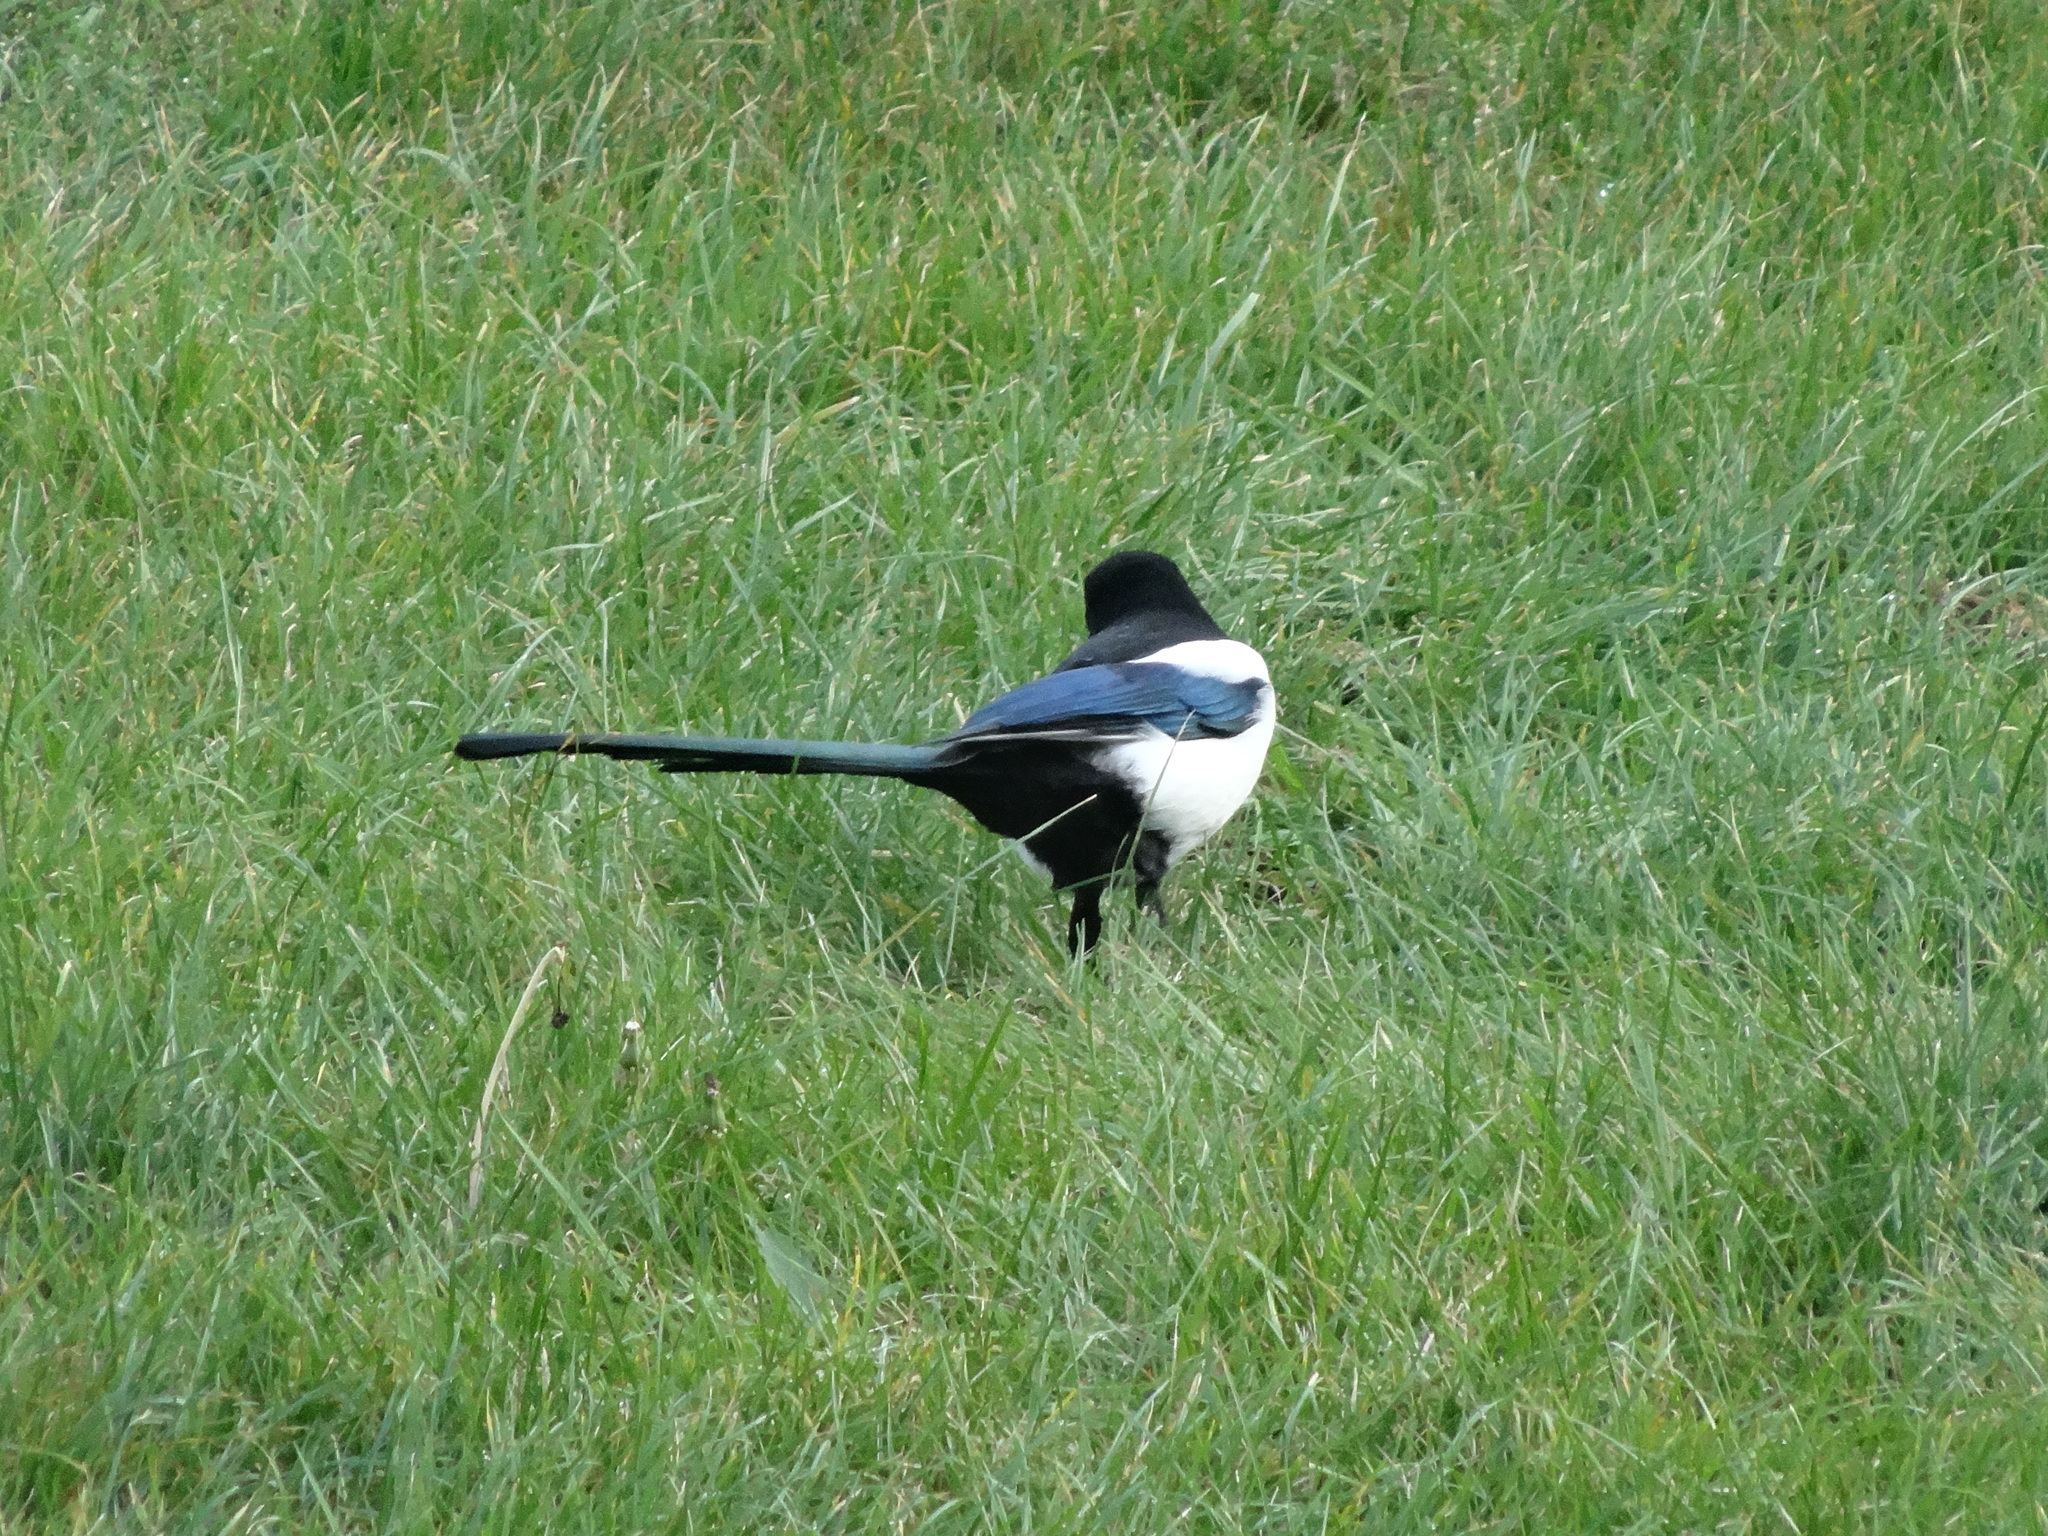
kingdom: Animalia
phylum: Chordata
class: Aves
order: Passeriformes
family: Corvidae
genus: Pica
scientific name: Pica pica
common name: Eurasian magpie
